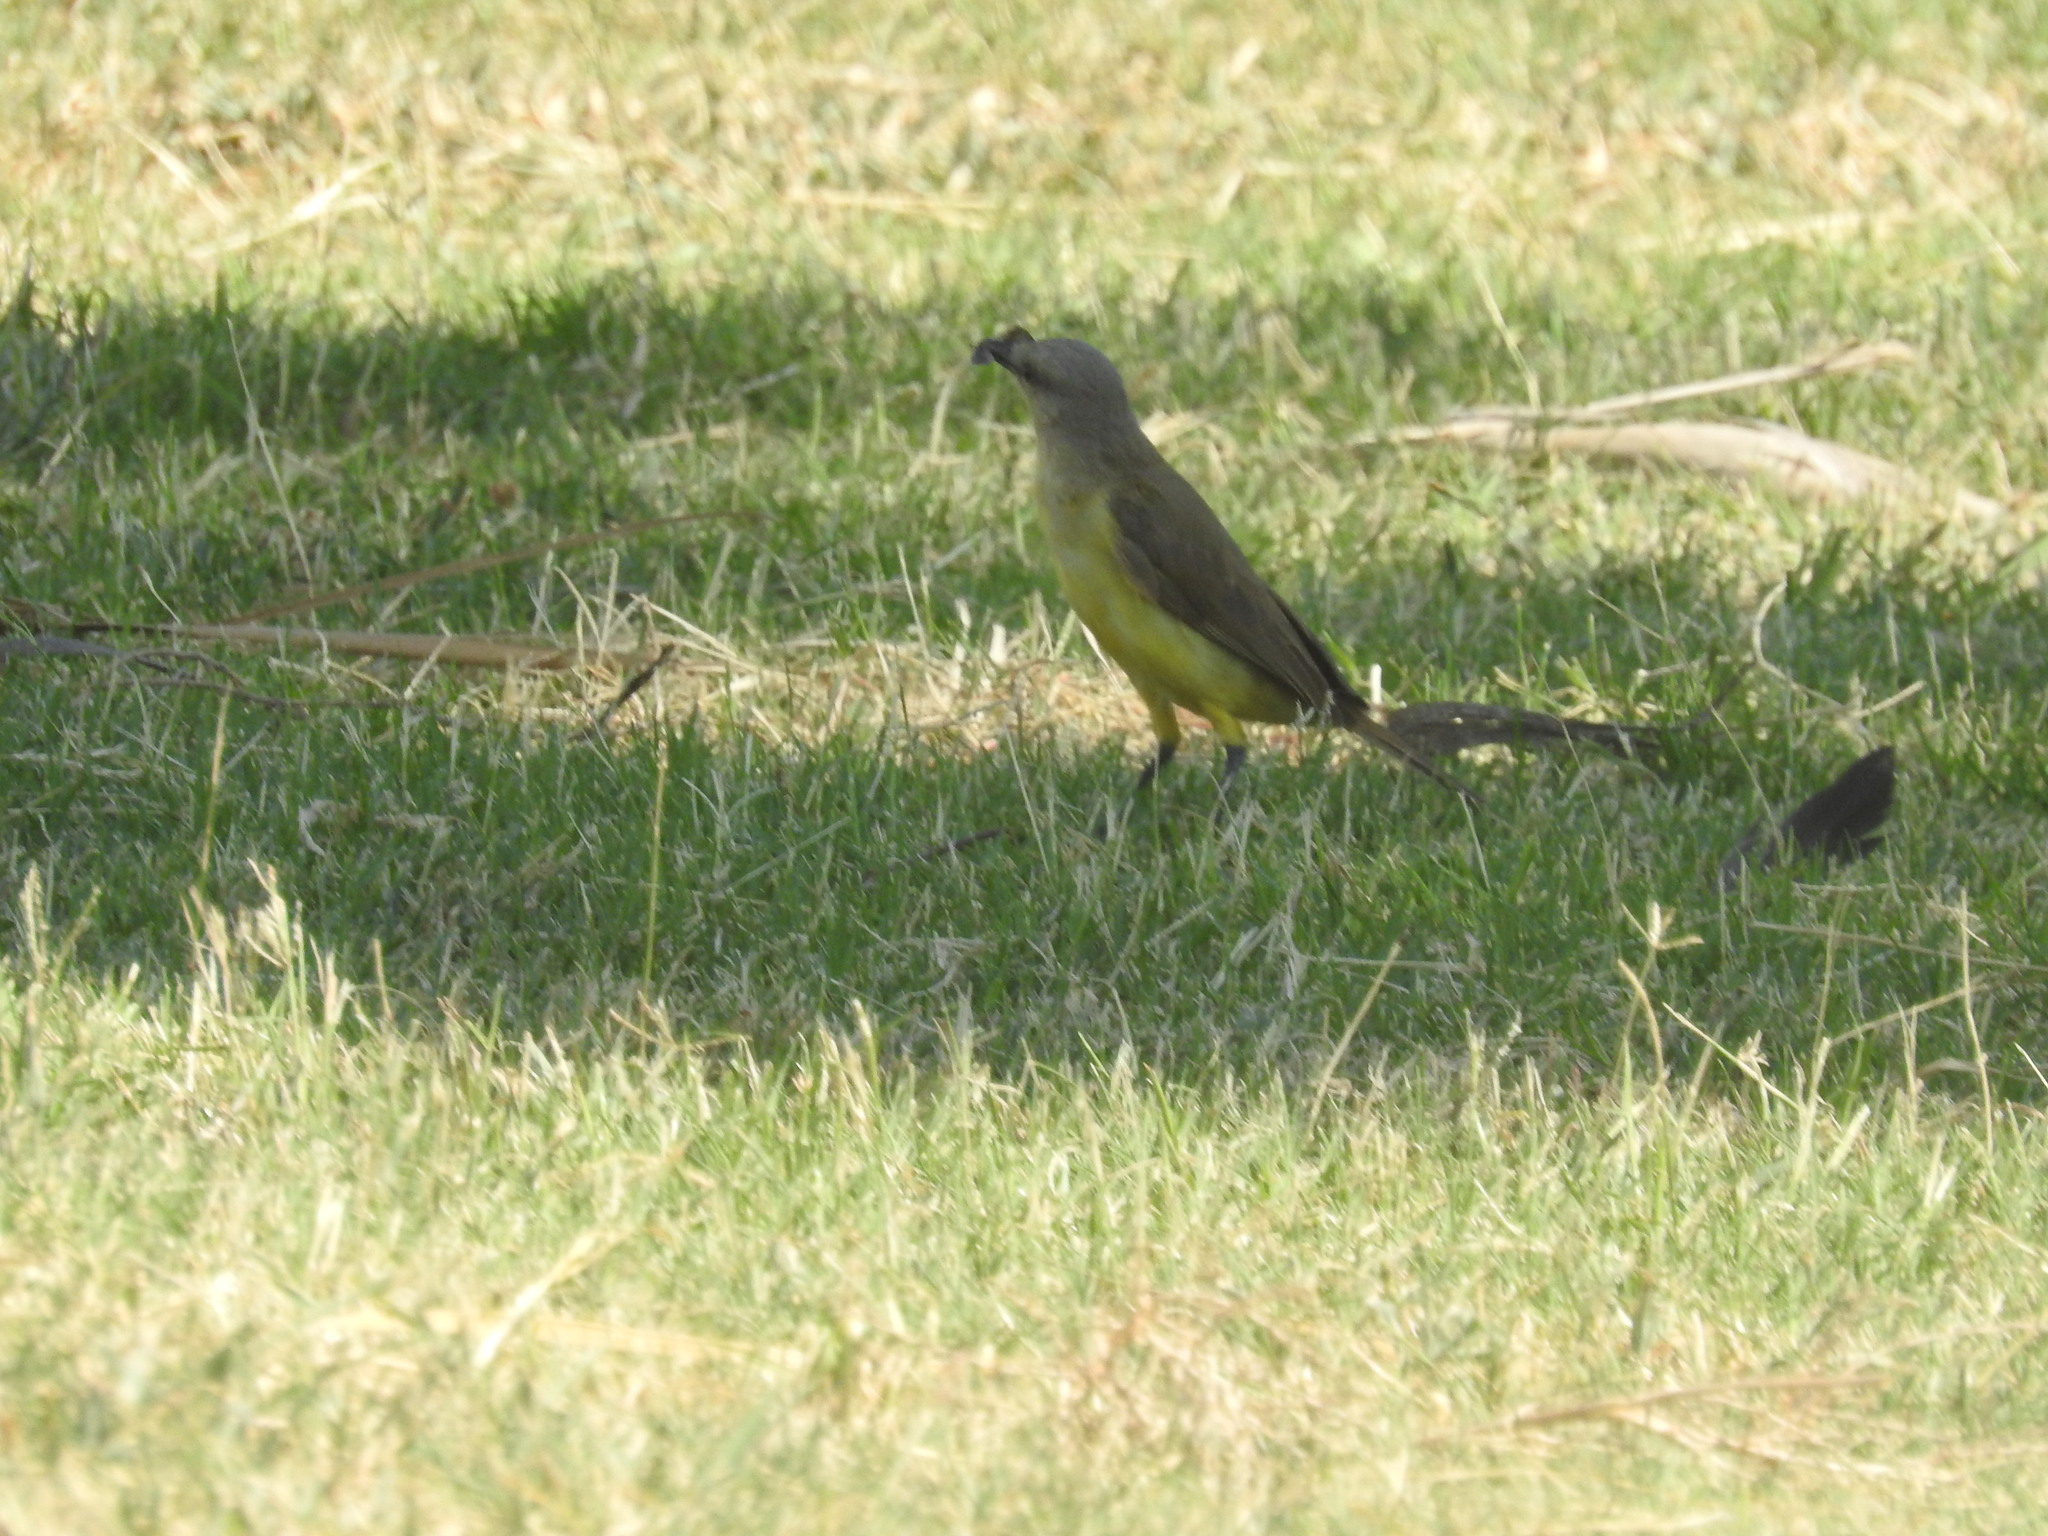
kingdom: Animalia
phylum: Chordata
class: Aves
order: Passeriformes
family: Tyrannidae
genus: Machetornis
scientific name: Machetornis rixosa
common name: Cattle tyrant
